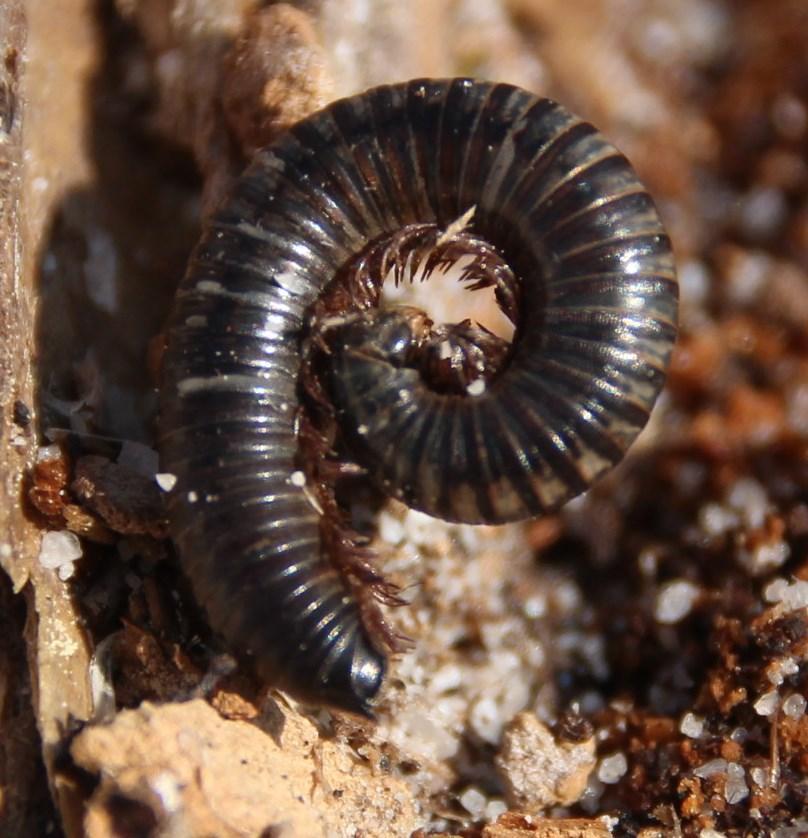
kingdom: Animalia
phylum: Arthropoda
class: Diplopoda
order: Julida
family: Julidae
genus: Ommatoiulus
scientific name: Ommatoiulus moreleti
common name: Portuguese millipede
